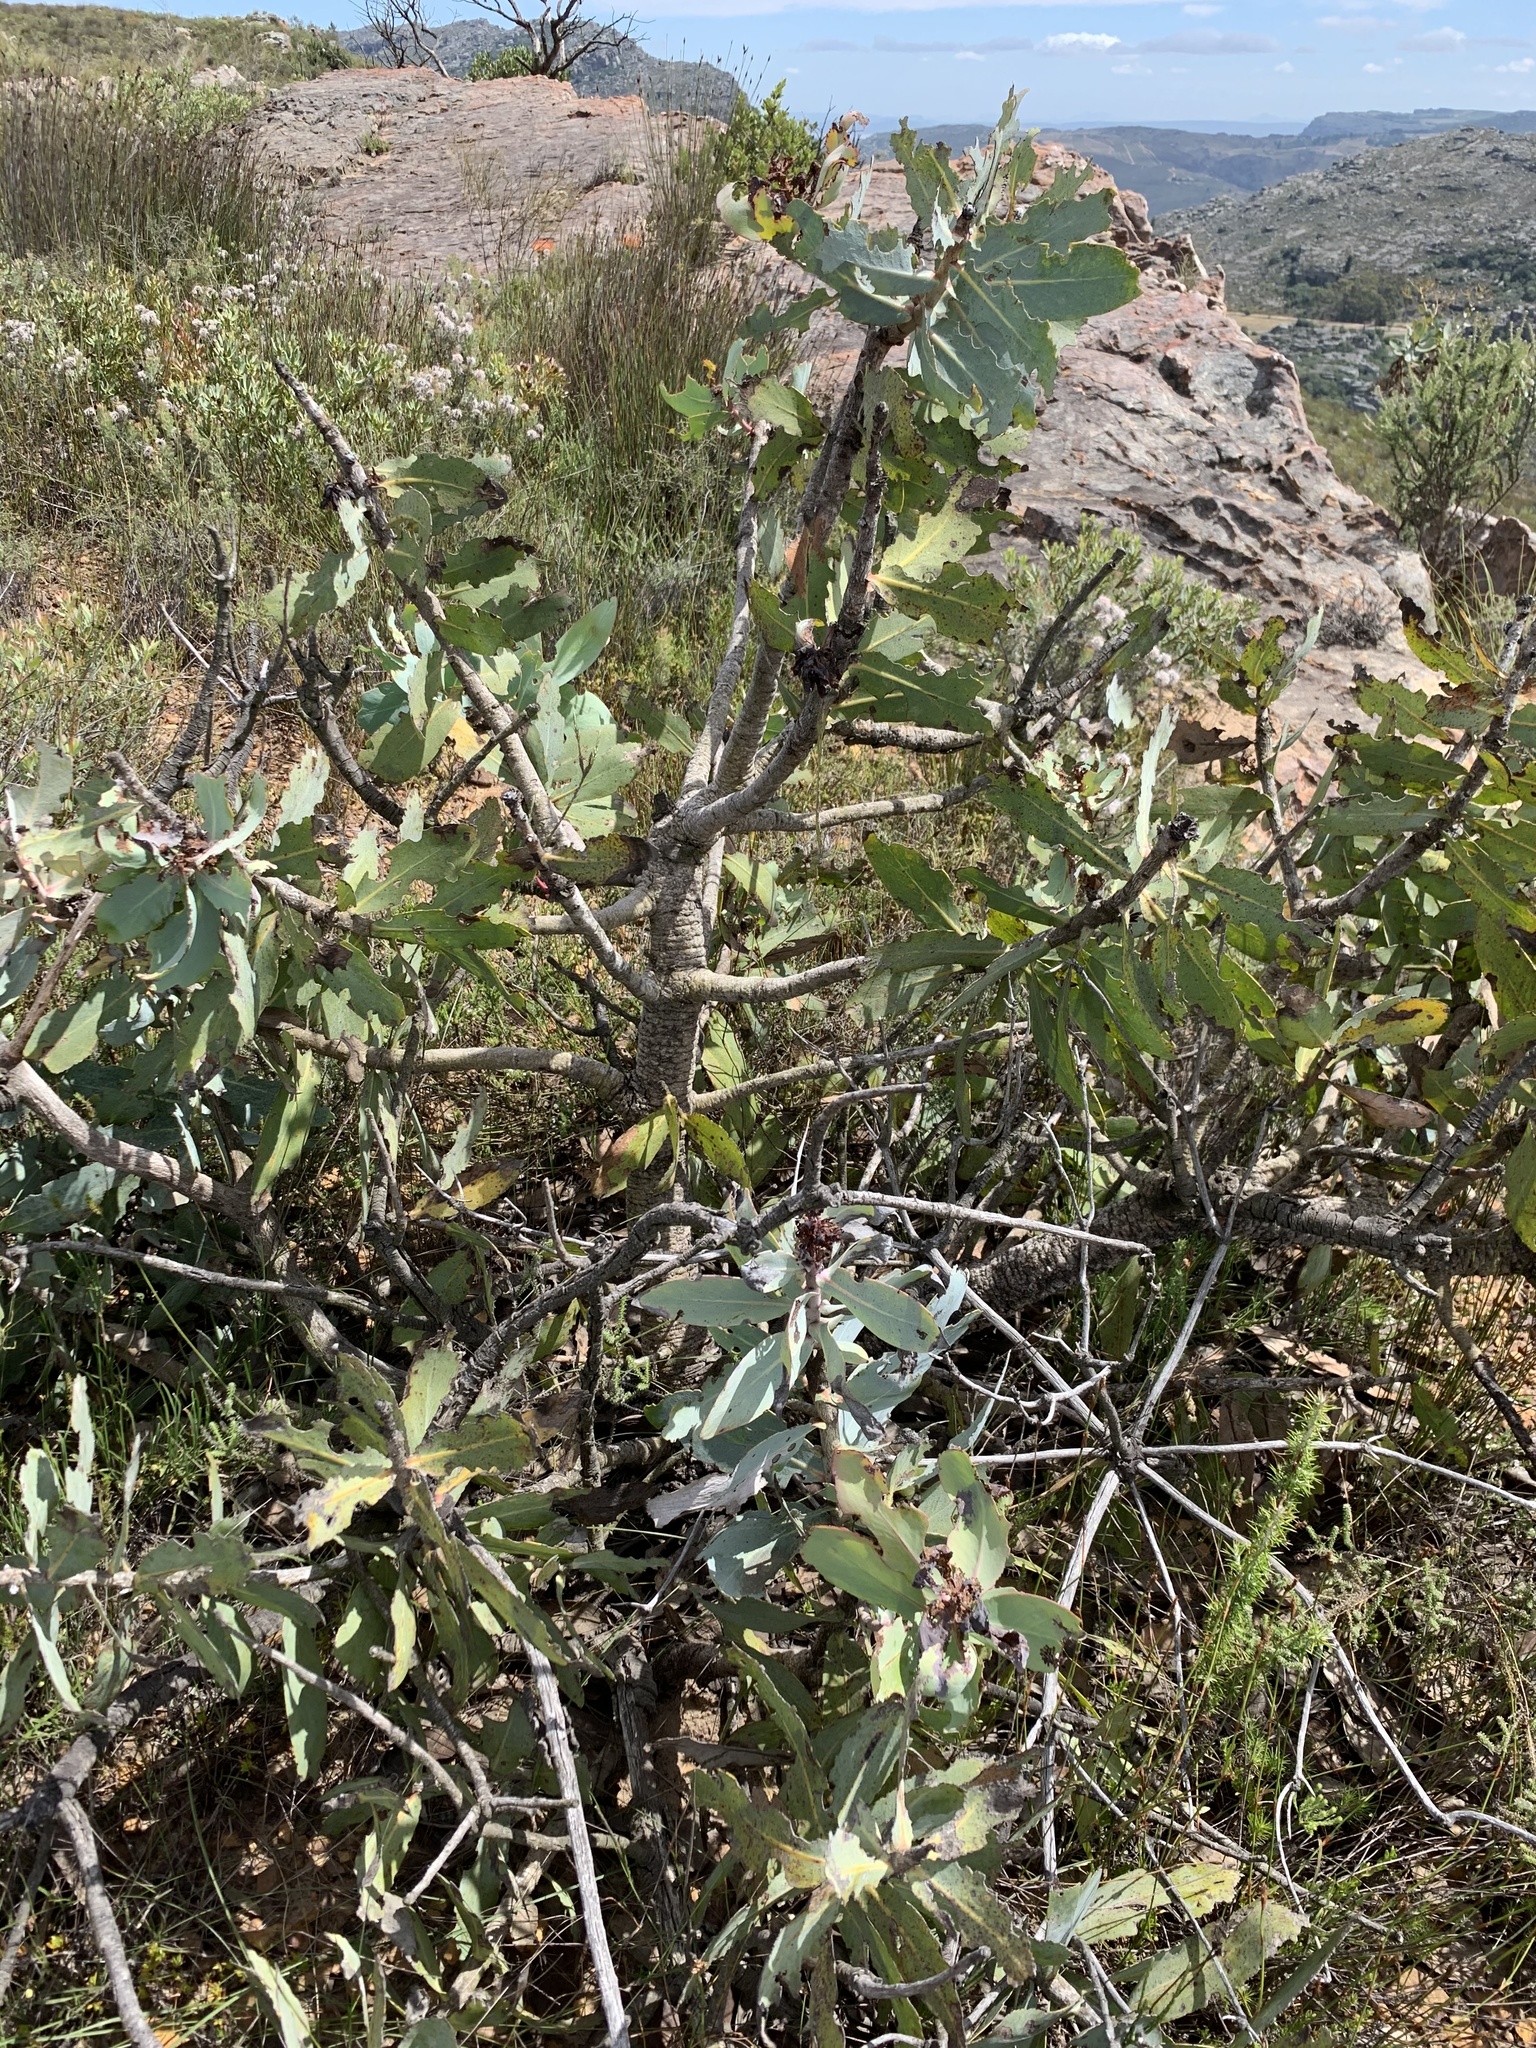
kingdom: Plantae
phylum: Tracheophyta
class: Magnoliopsida
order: Proteales
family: Proteaceae
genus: Protea
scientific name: Protea nitida
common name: Tree protea
